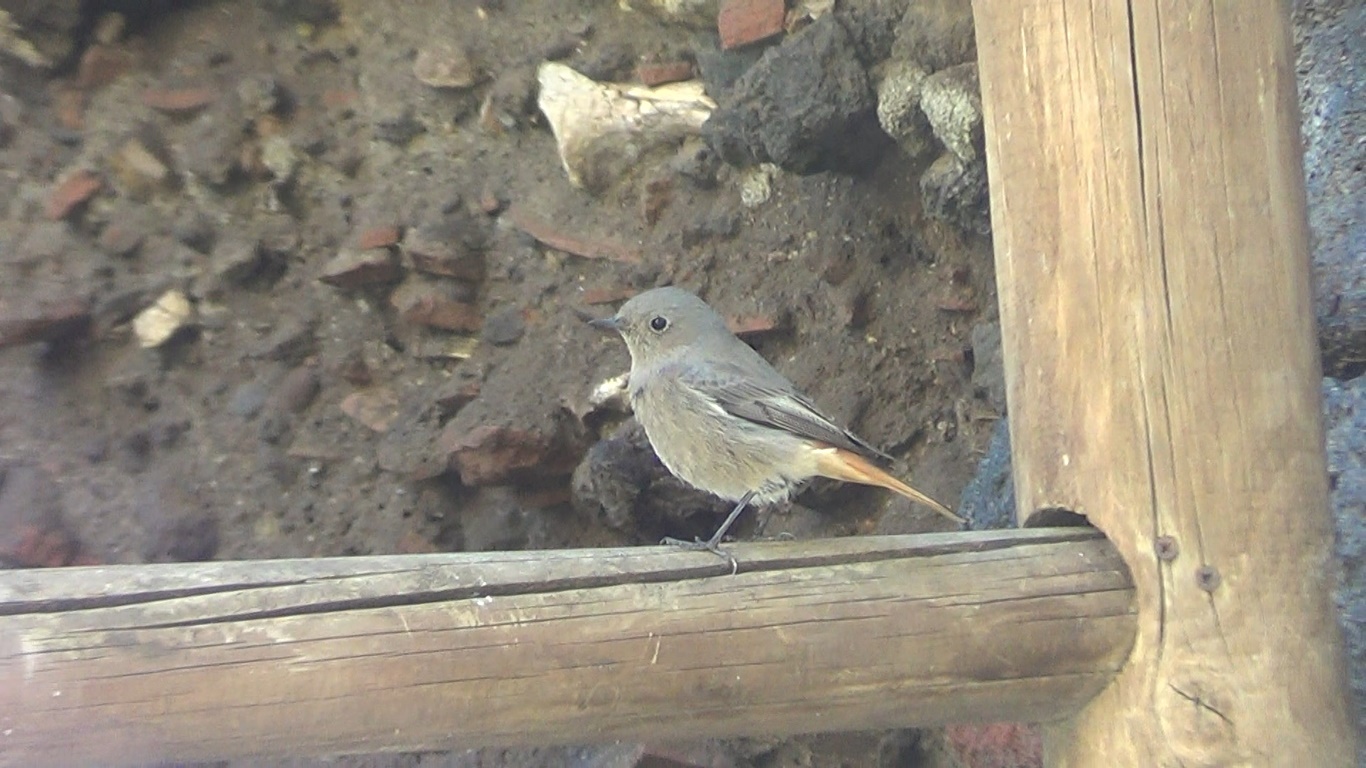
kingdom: Animalia
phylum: Chordata
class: Aves
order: Passeriformes
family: Muscicapidae
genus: Phoenicurus
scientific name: Phoenicurus ochruros
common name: Black redstart
